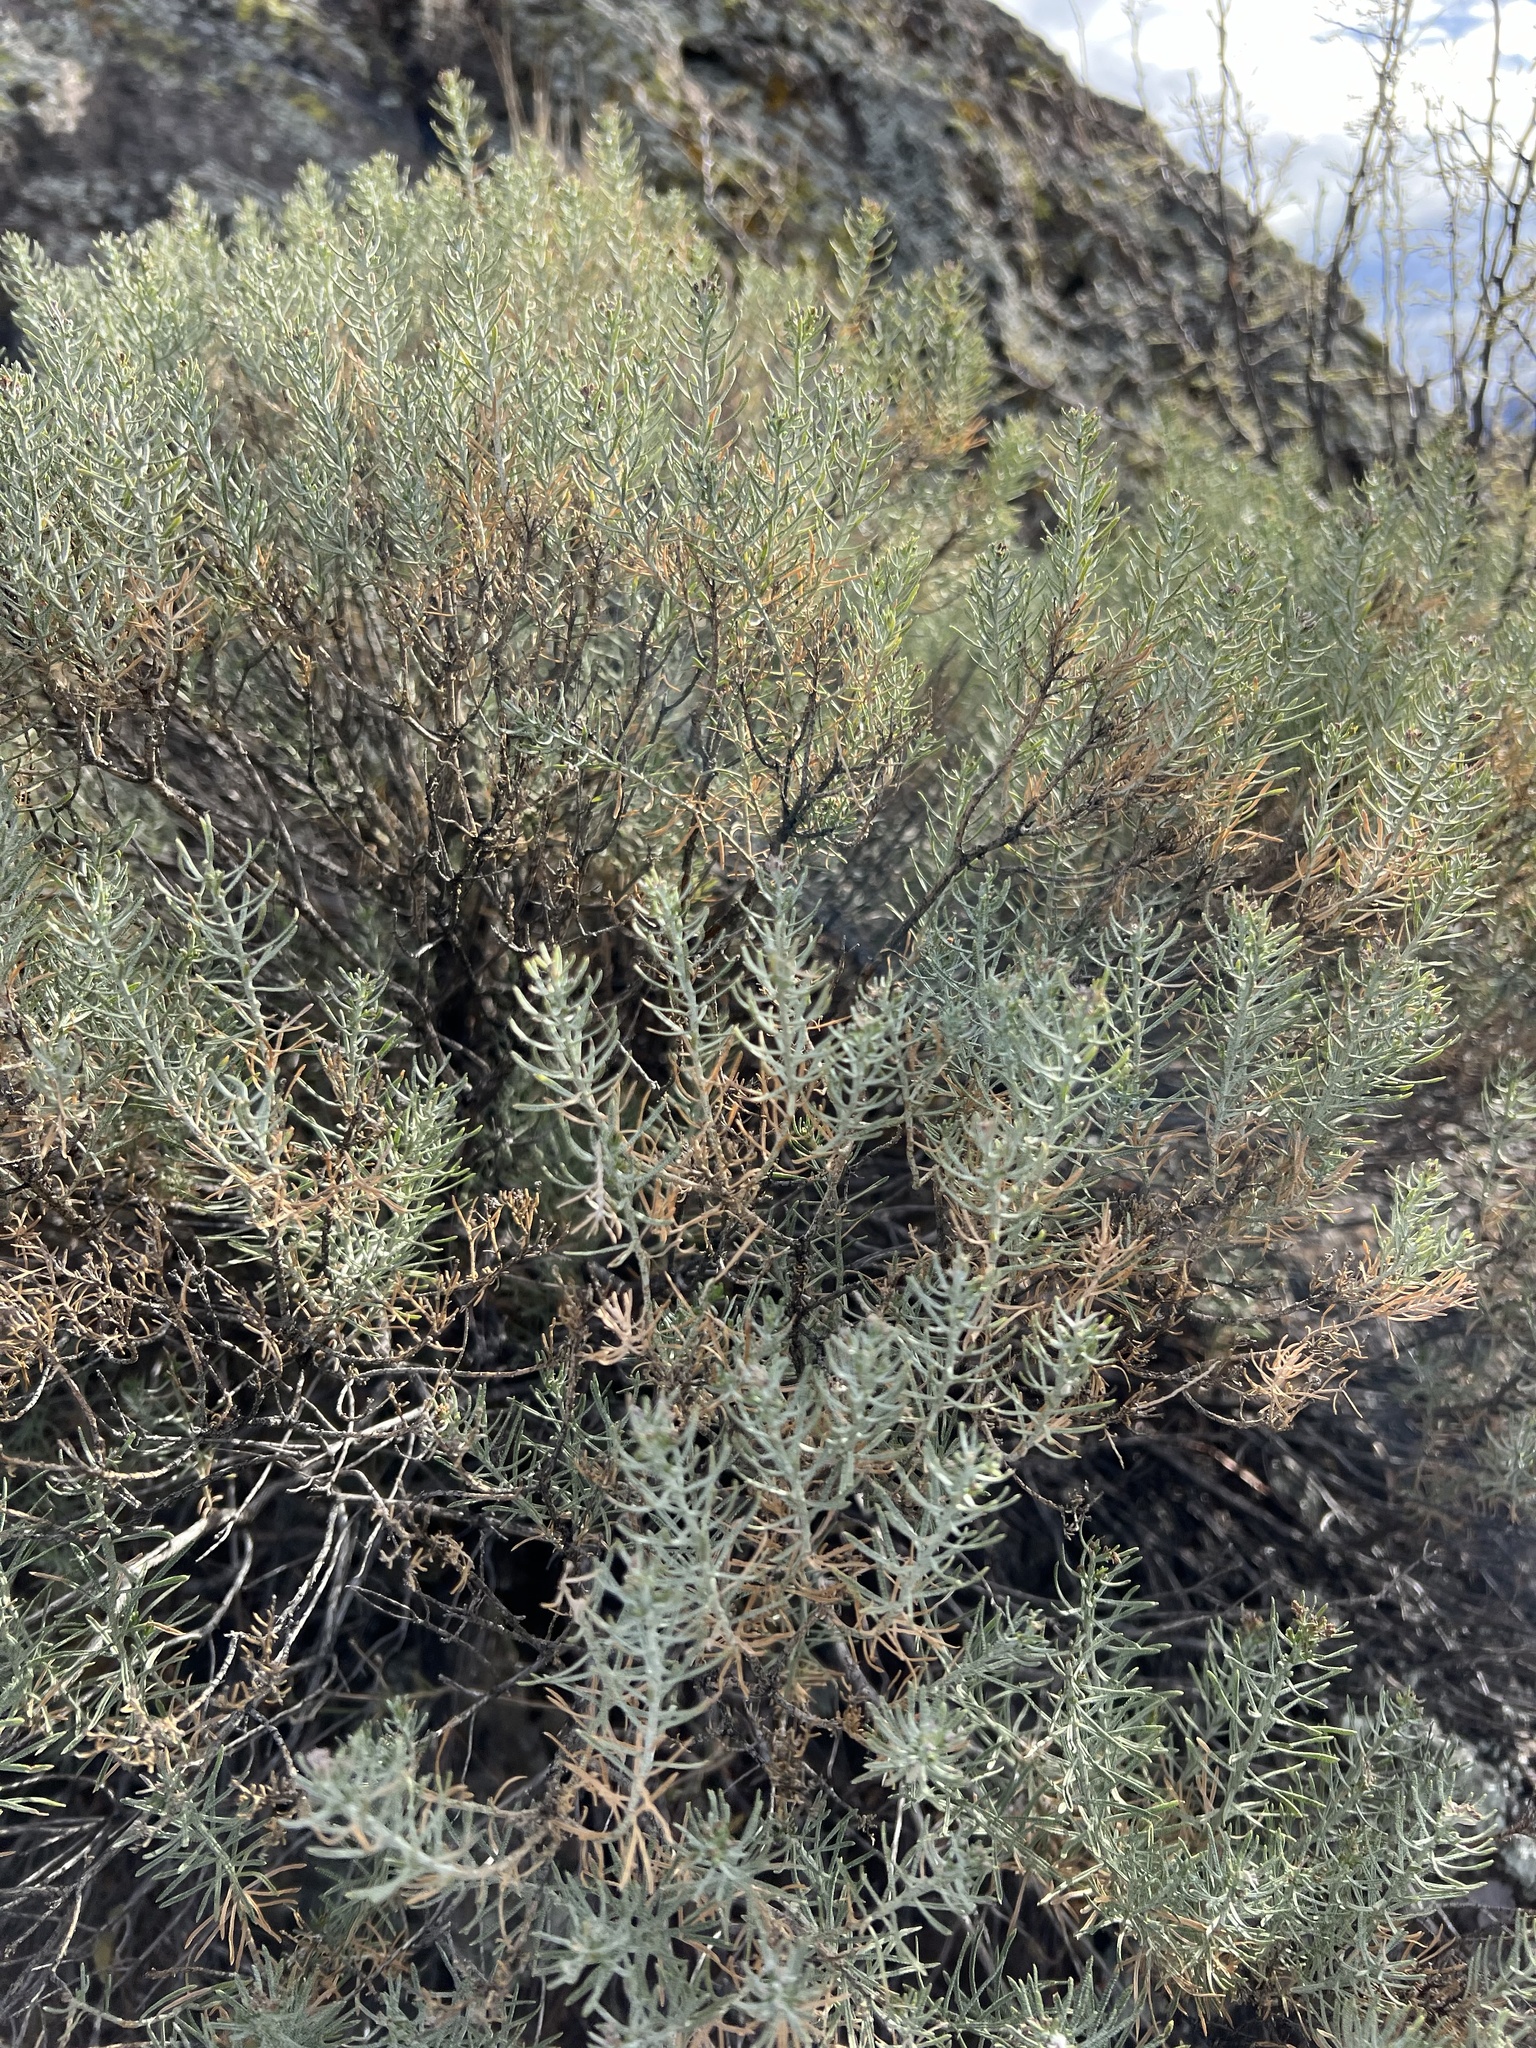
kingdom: Plantae
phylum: Tracheophyta
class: Magnoliopsida
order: Asterales
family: Asteraceae
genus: Ericameria
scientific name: Ericameria laricifolia
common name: Turpentine-bush
